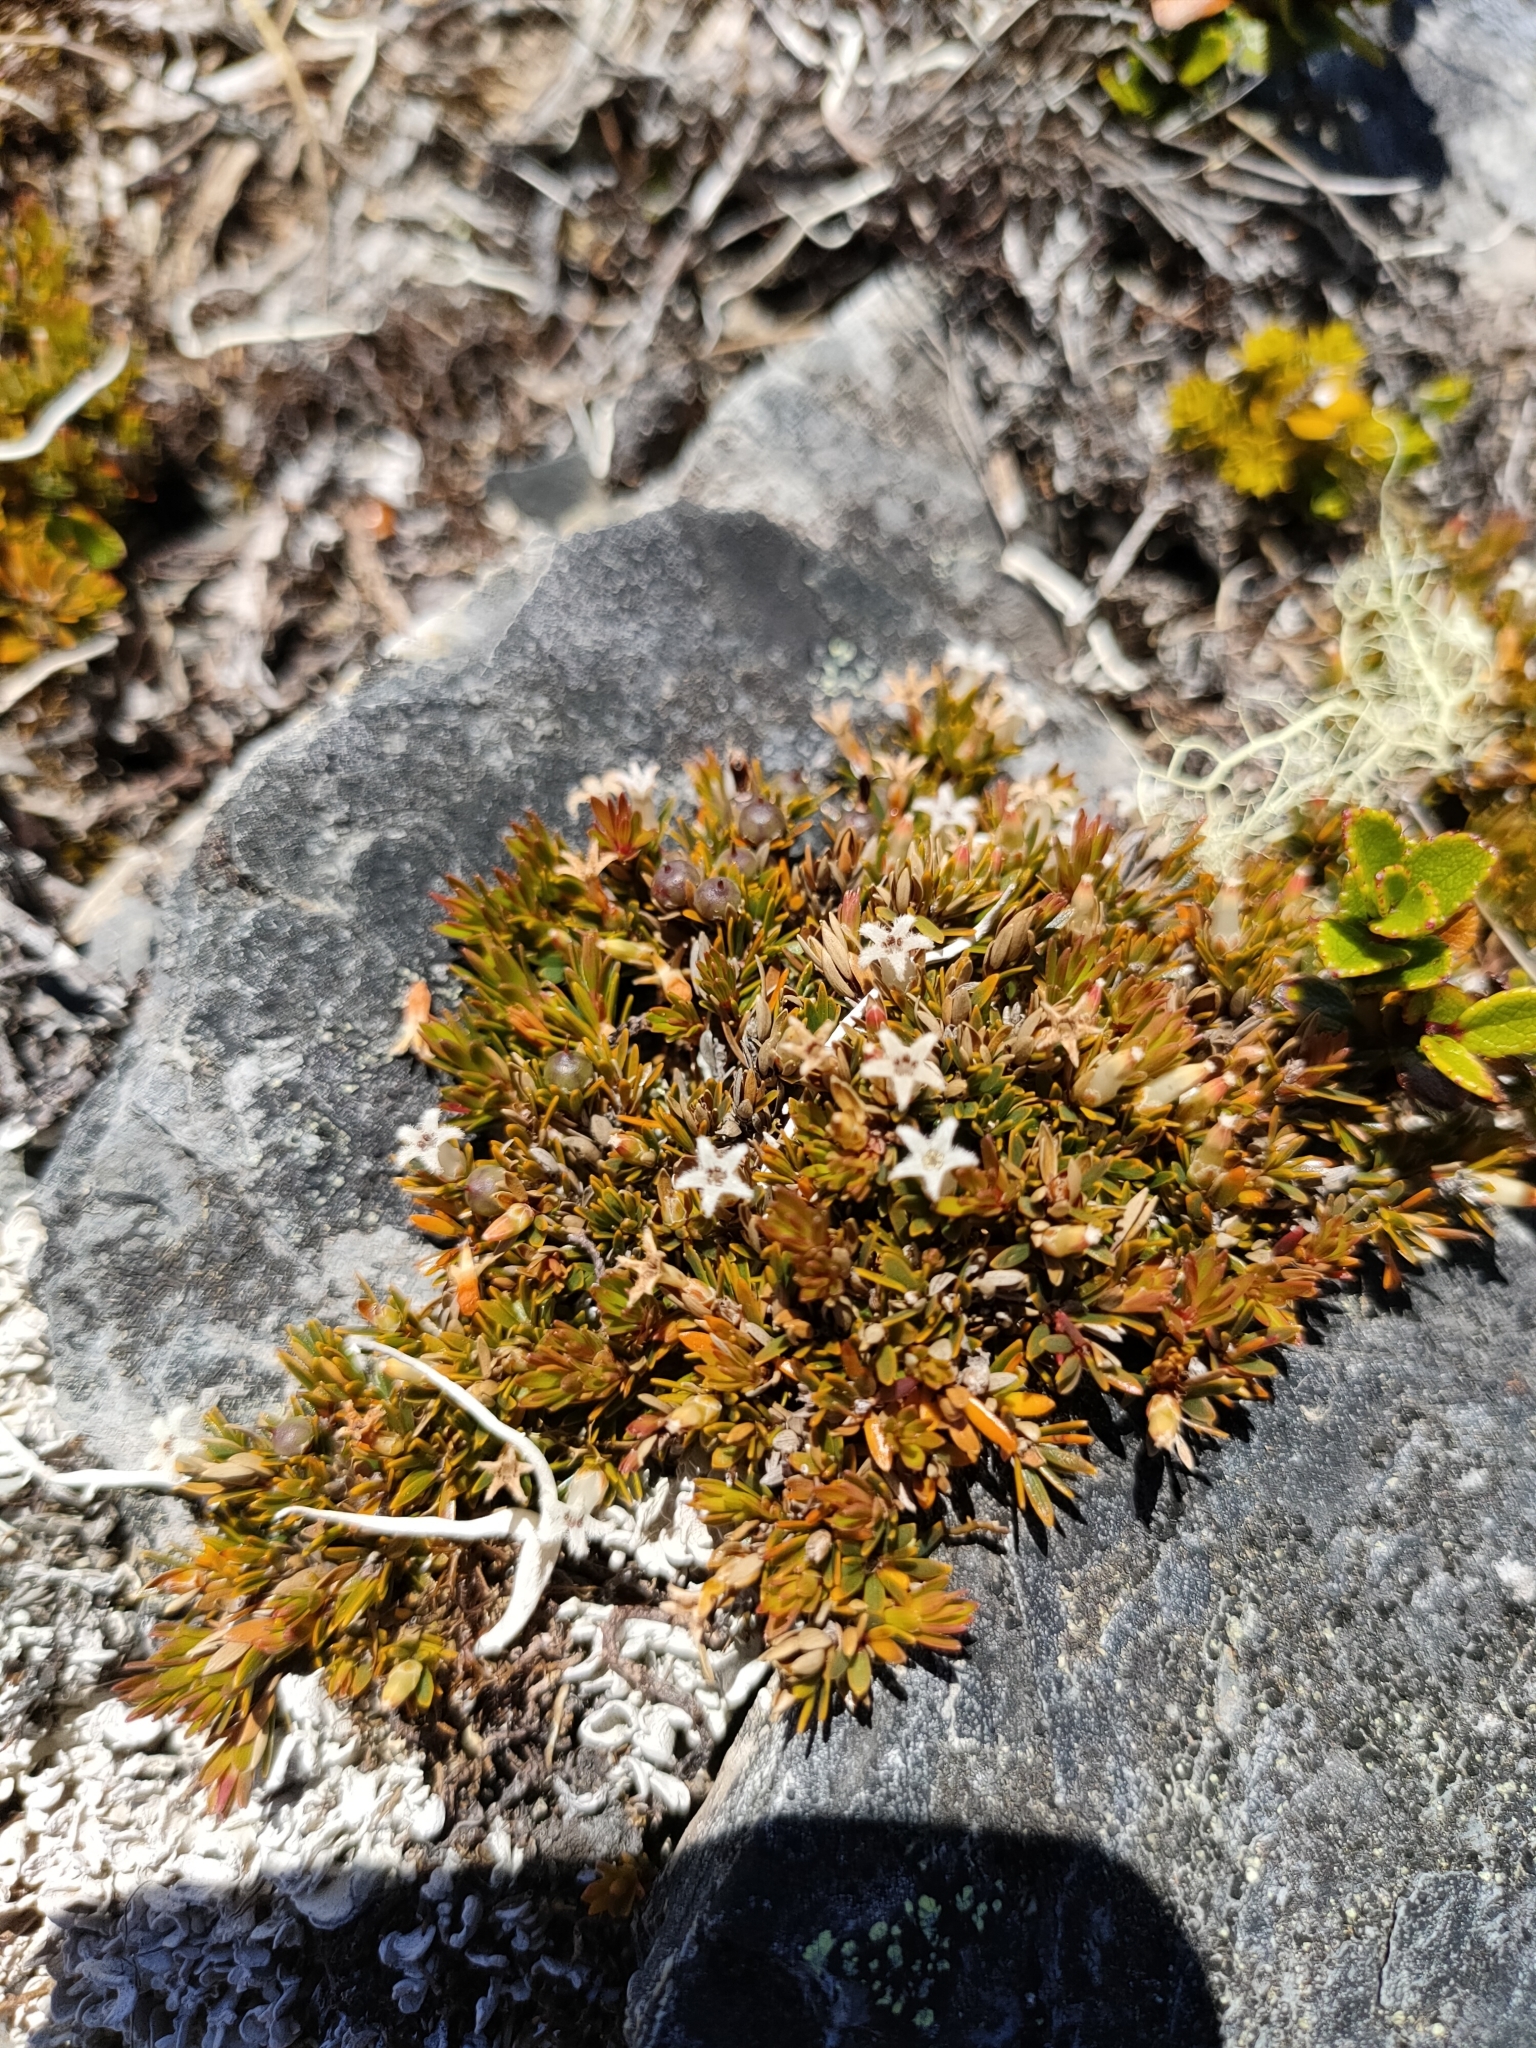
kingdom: Plantae
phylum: Tracheophyta
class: Magnoliopsida
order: Ericales
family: Ericaceae
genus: Pentachondra
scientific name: Pentachondra pumila
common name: Carpet-heath
